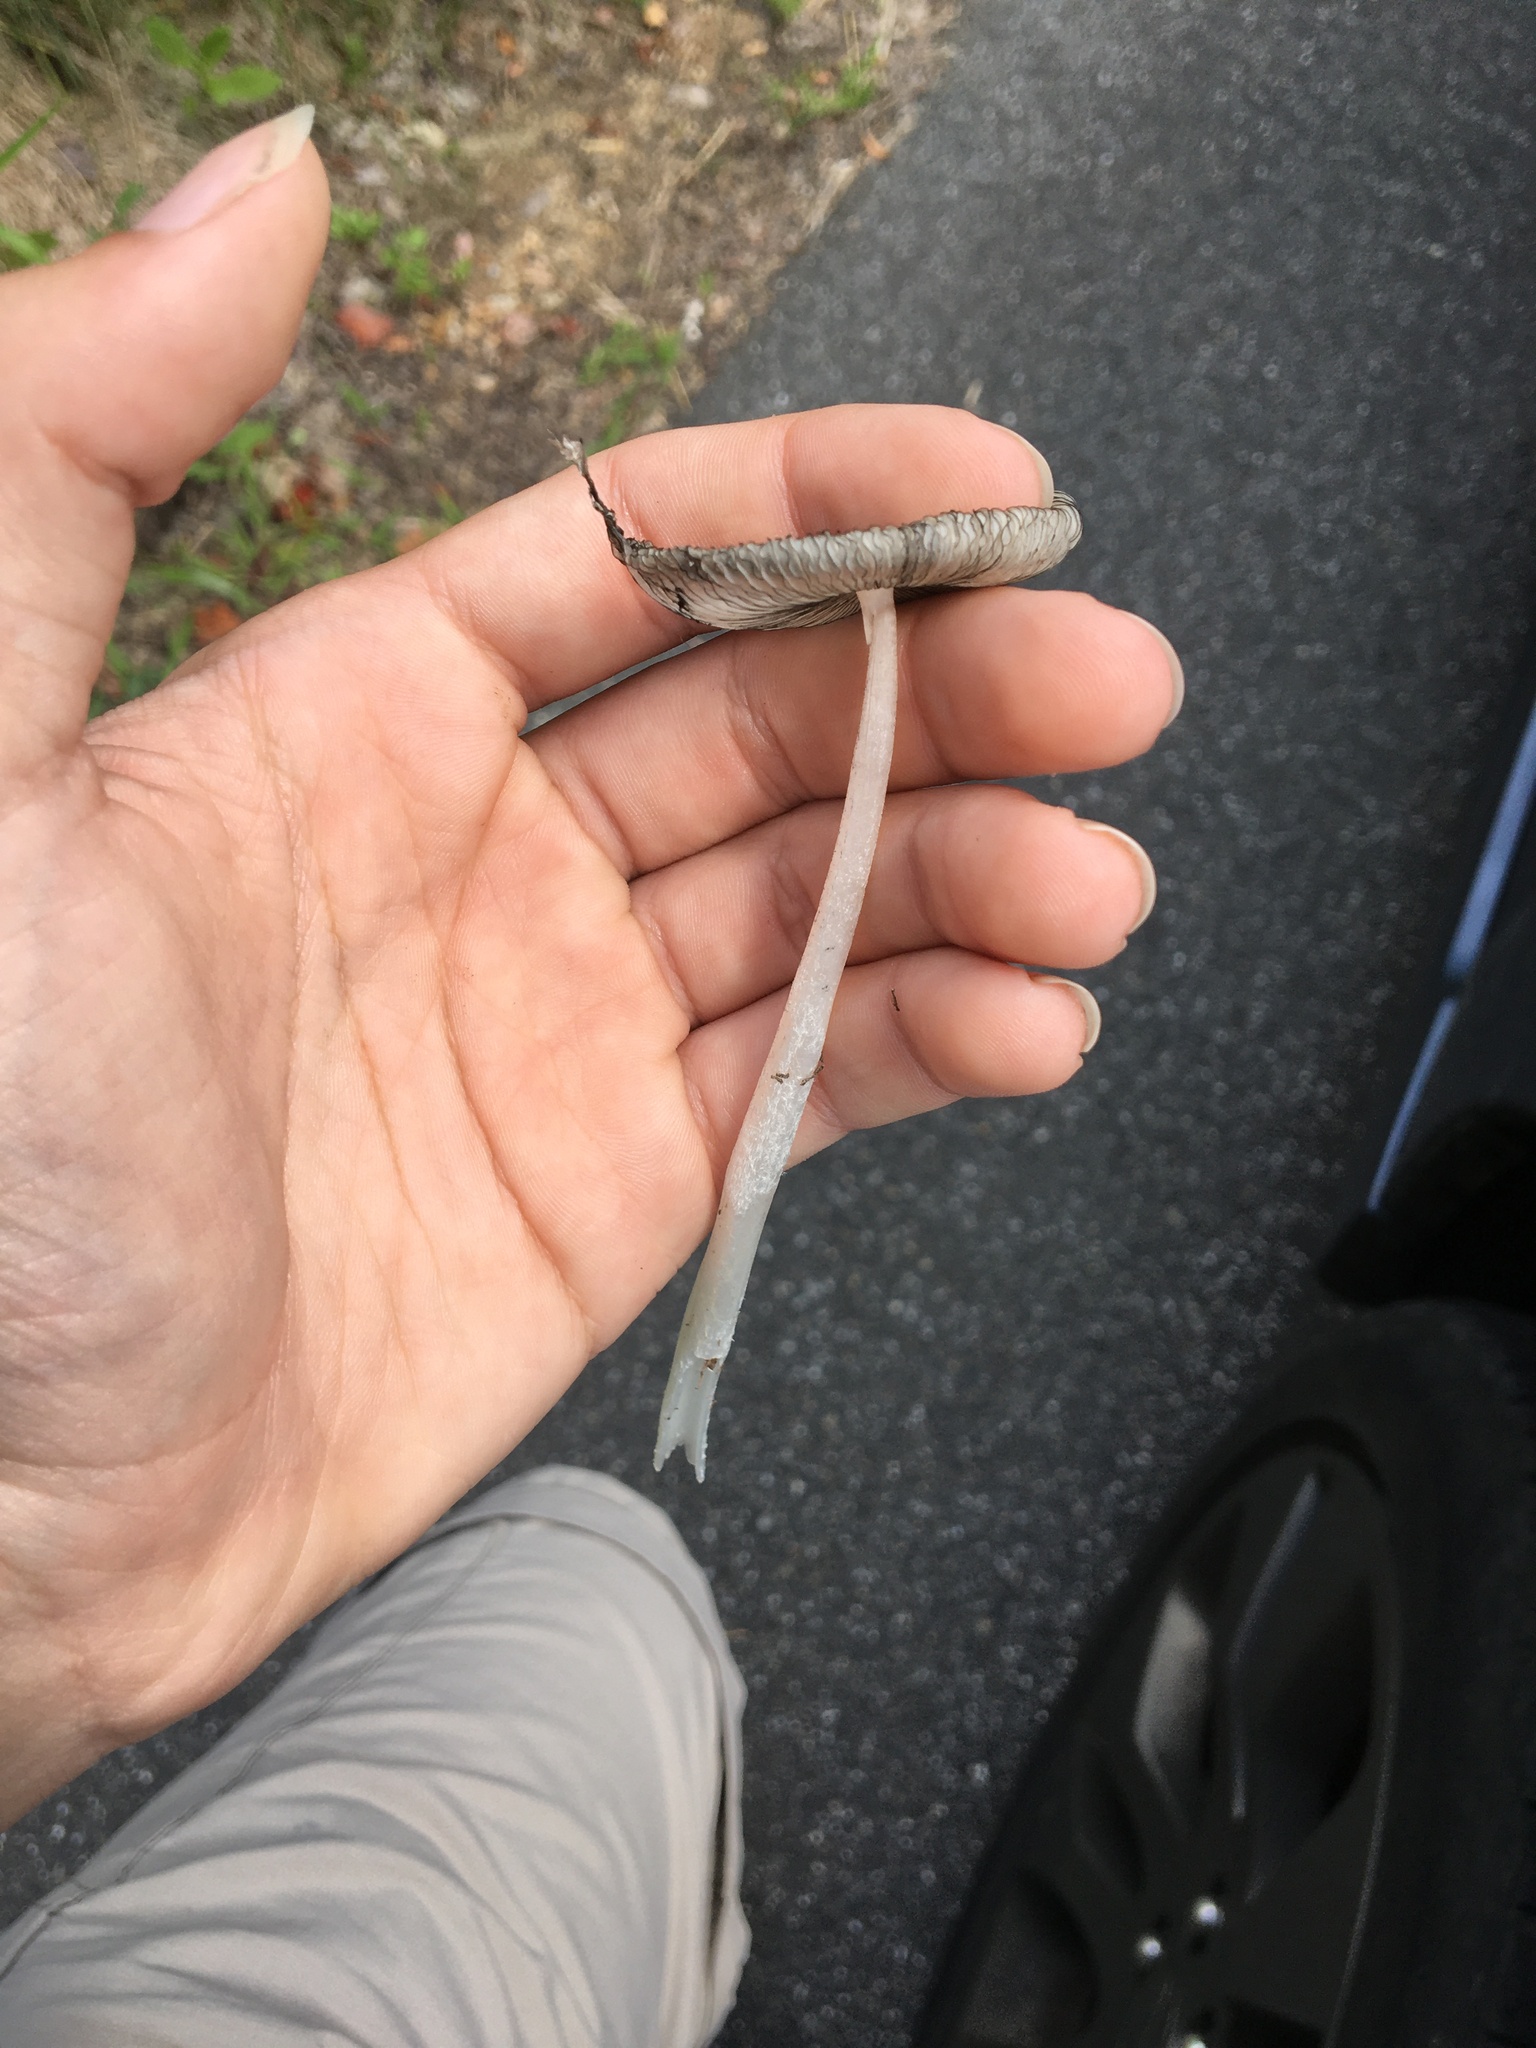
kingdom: Fungi
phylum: Basidiomycota
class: Agaricomycetes
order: Agaricales
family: Psathyrellaceae
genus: Coprinopsis
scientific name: Coprinopsis lagopus
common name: Hare'sfoot inkcap
